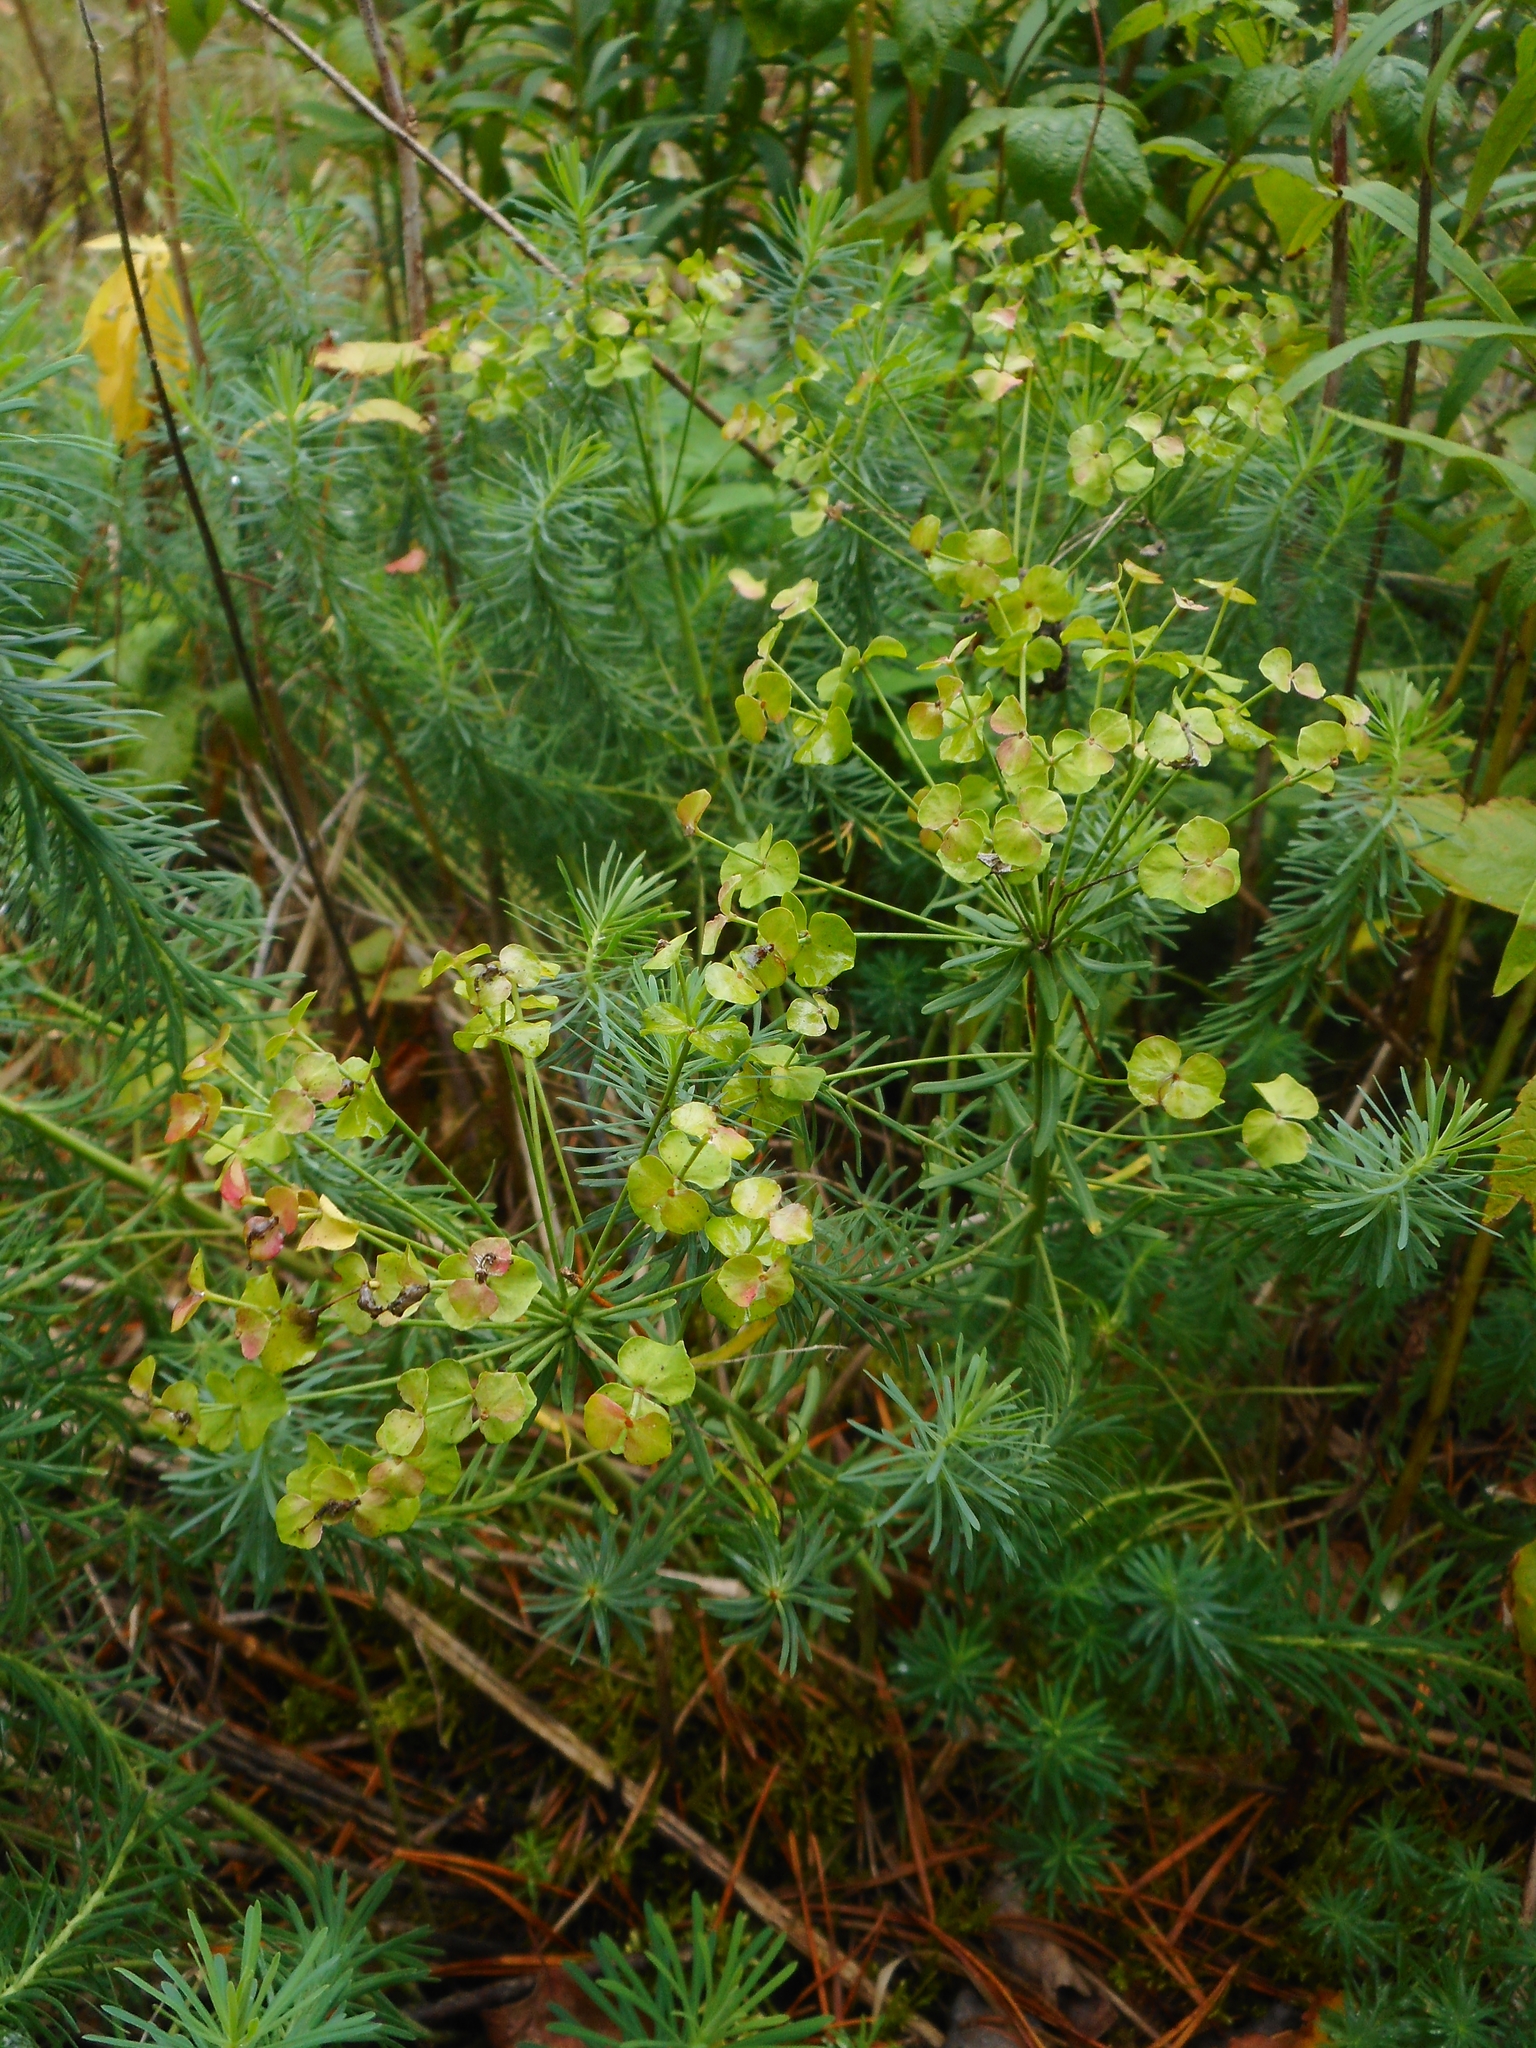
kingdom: Plantae
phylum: Tracheophyta
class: Magnoliopsida
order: Malpighiales
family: Euphorbiaceae
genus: Euphorbia
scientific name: Euphorbia cyparissias
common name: Cypress spurge
